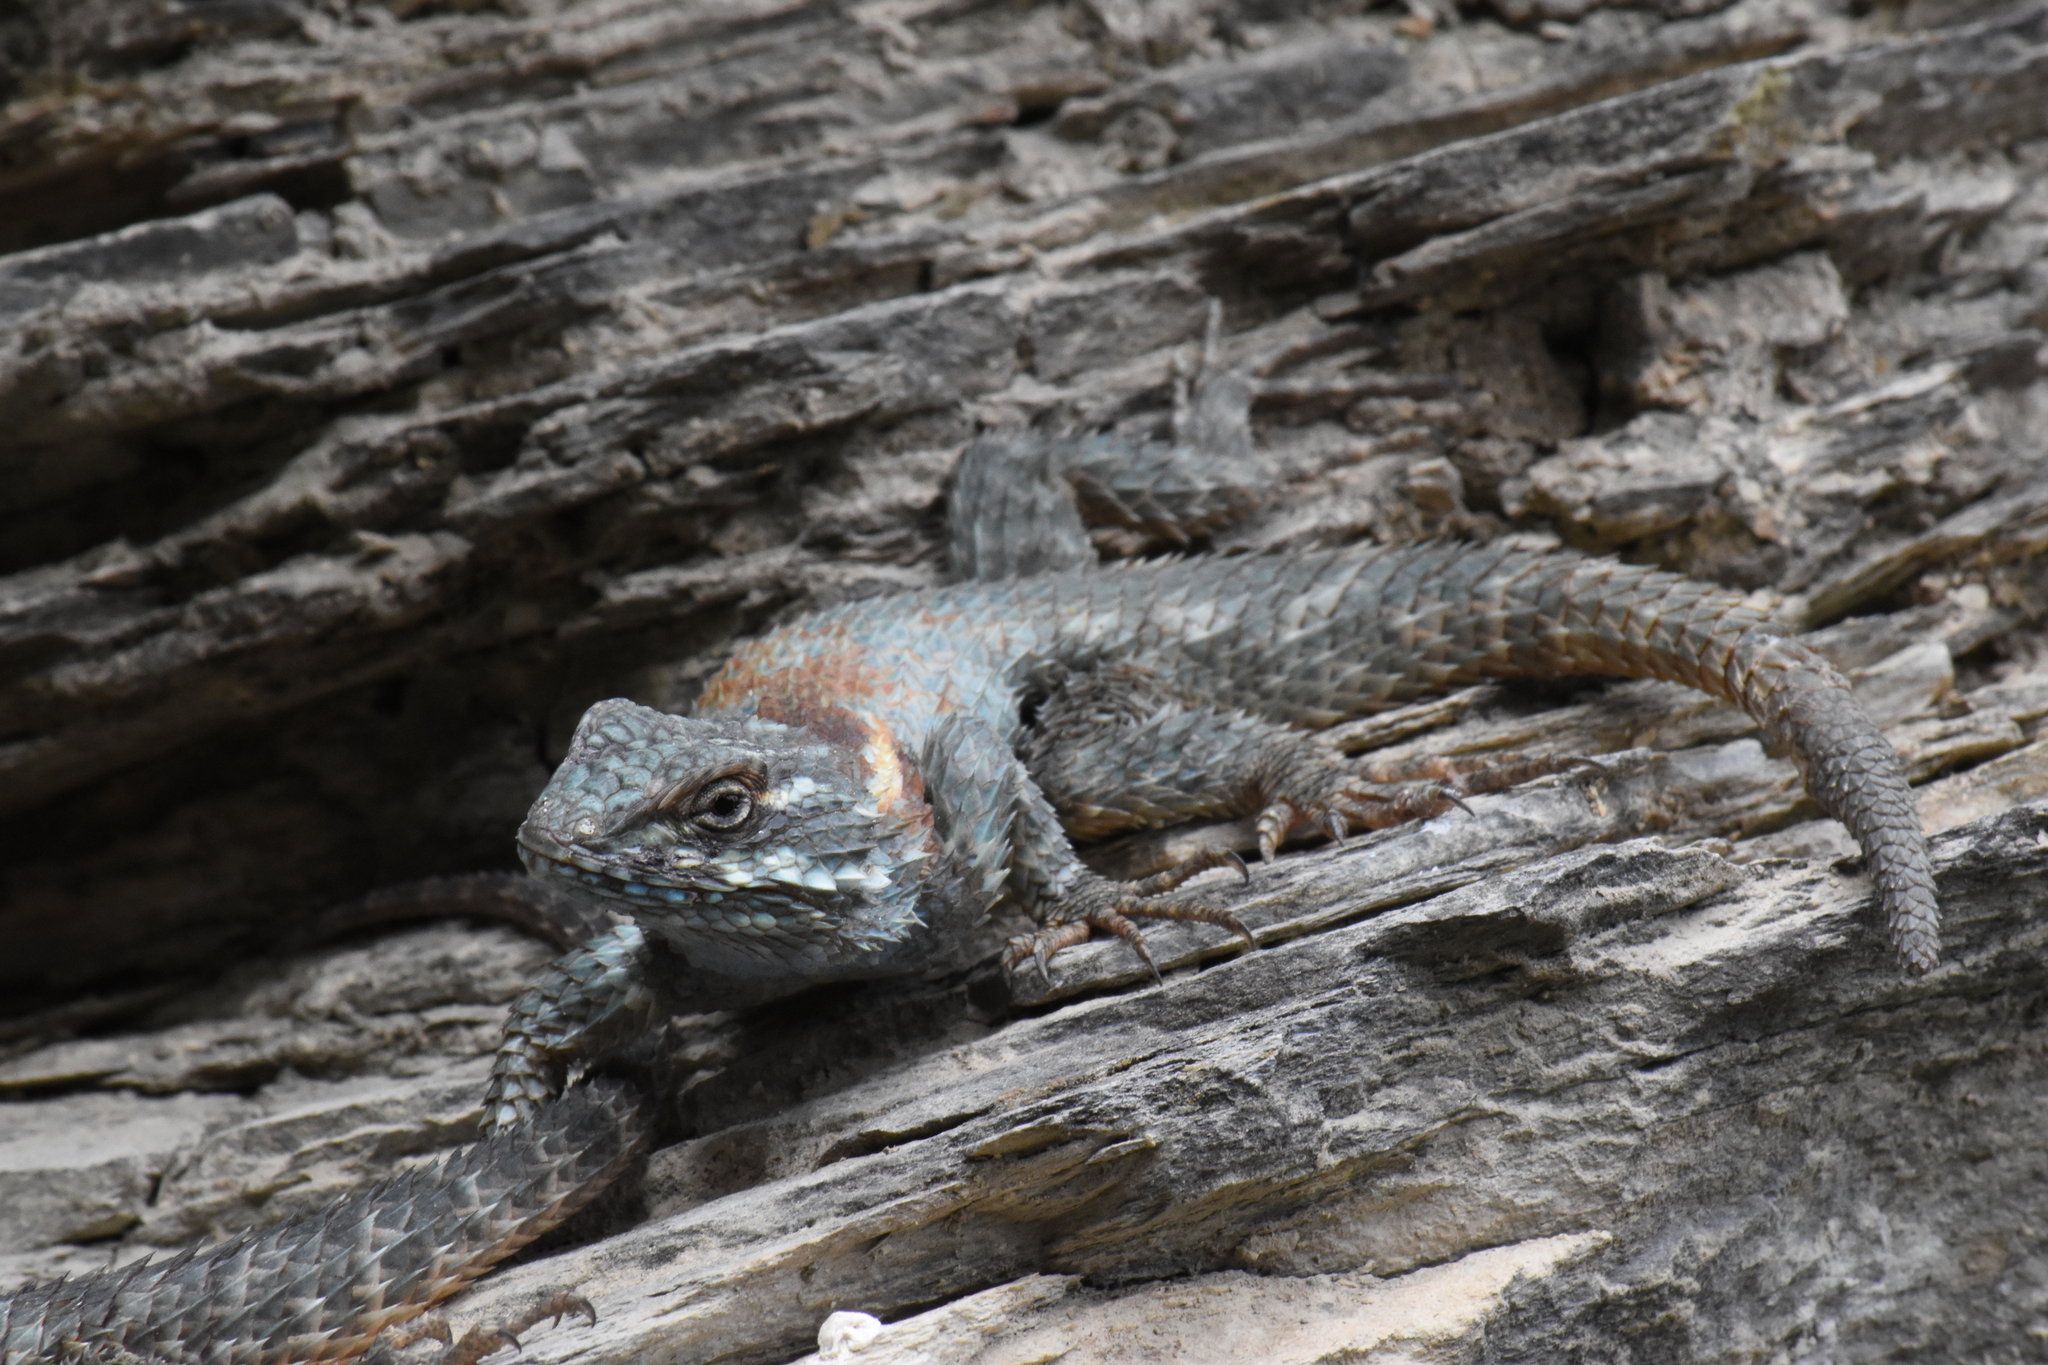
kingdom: Animalia
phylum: Chordata
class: Squamata
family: Phrynosomatidae
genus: Sceloporus
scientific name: Sceloporus torquatus
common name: Central plateau torquate lizard [melanogaster]
